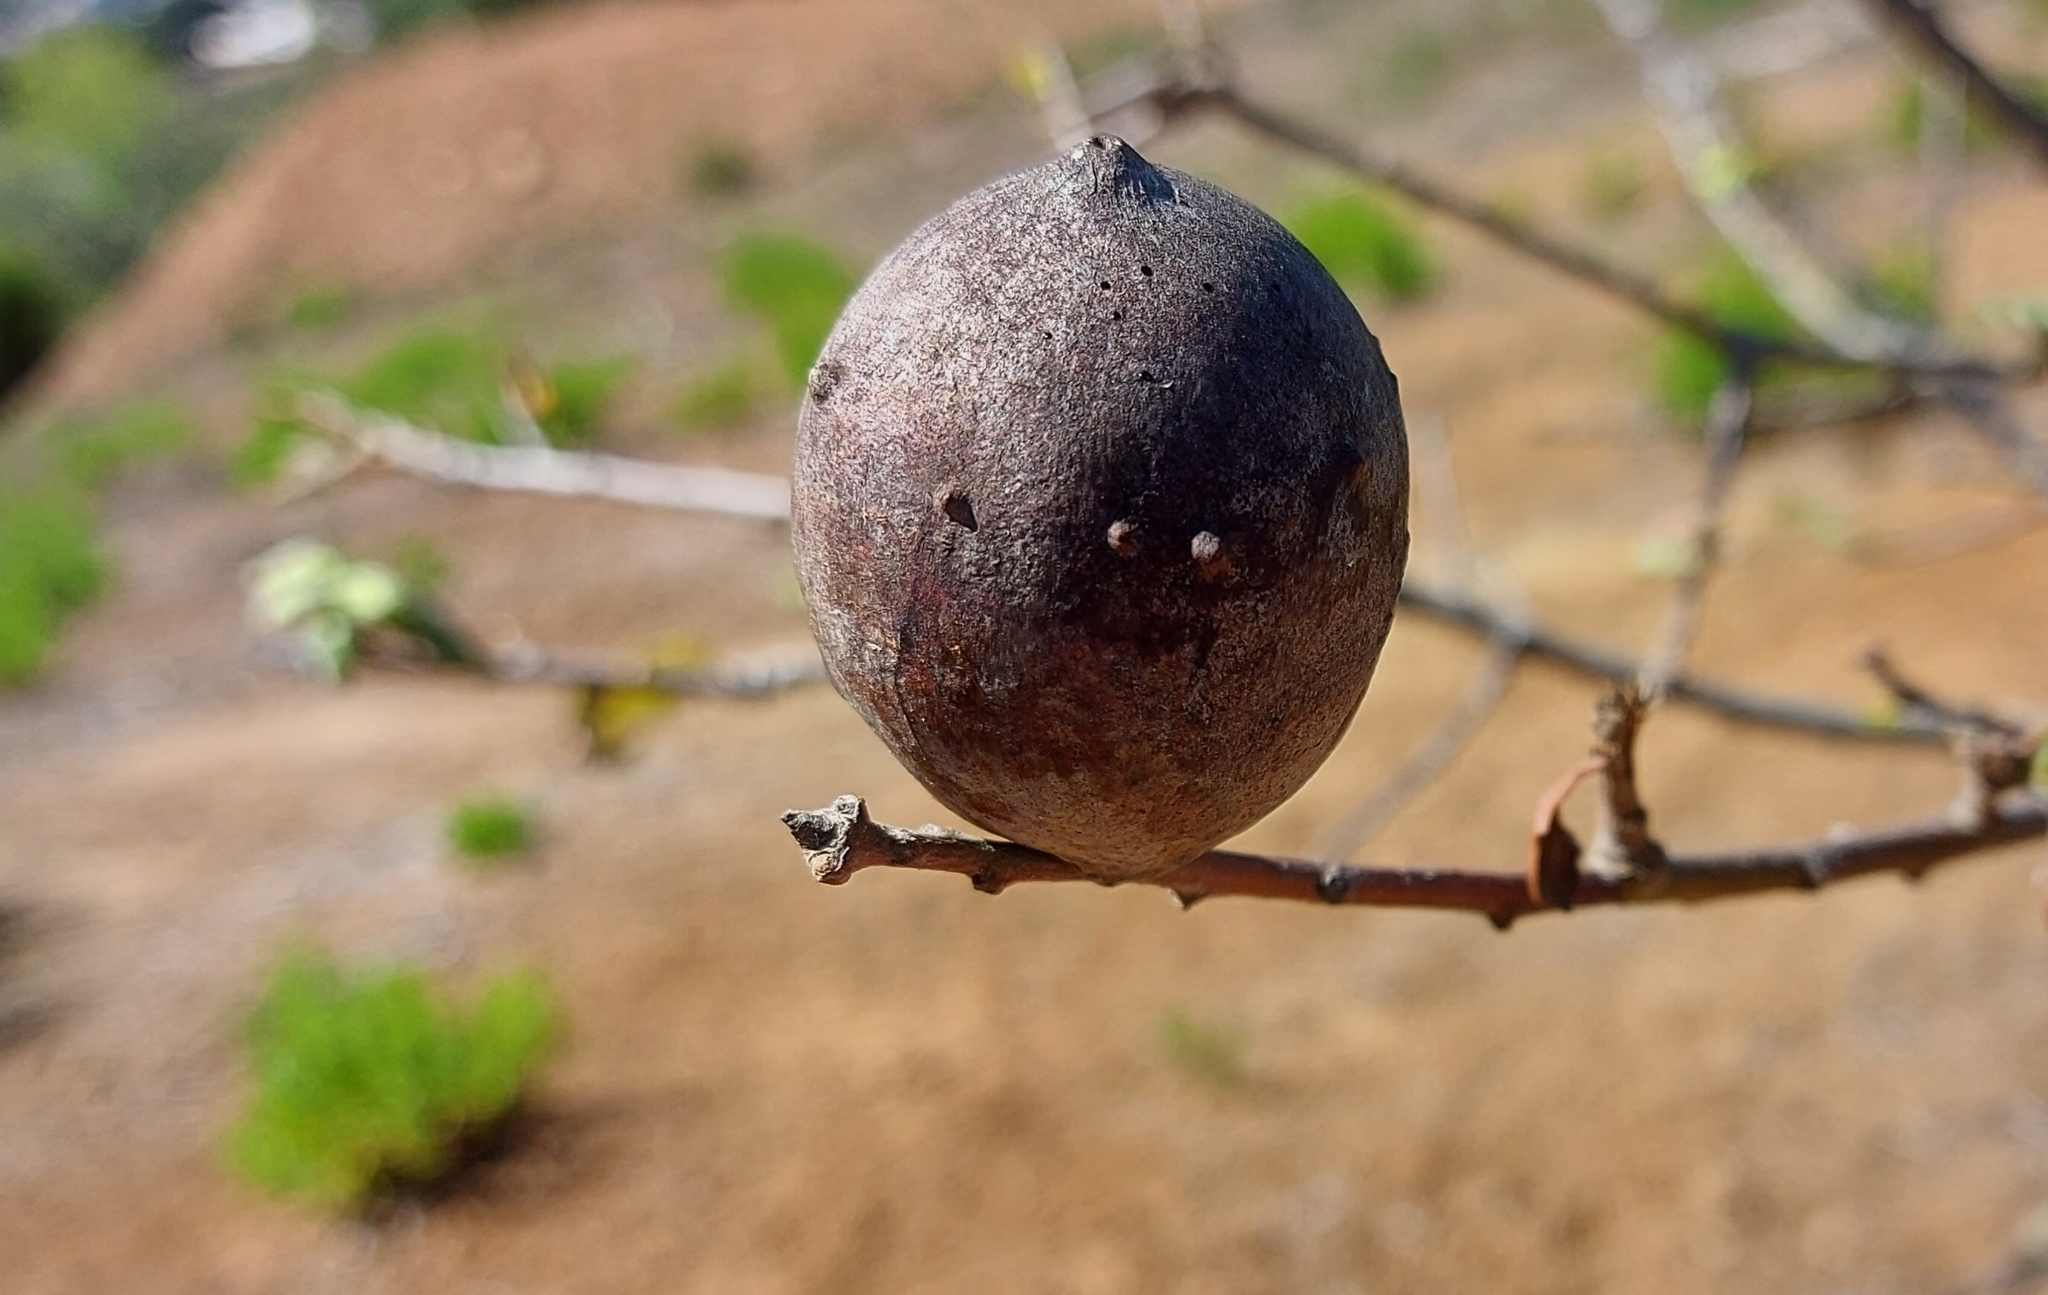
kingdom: Animalia
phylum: Arthropoda
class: Insecta
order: Hymenoptera
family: Cynipidae
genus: Andricus
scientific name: Andricus quercustozae
